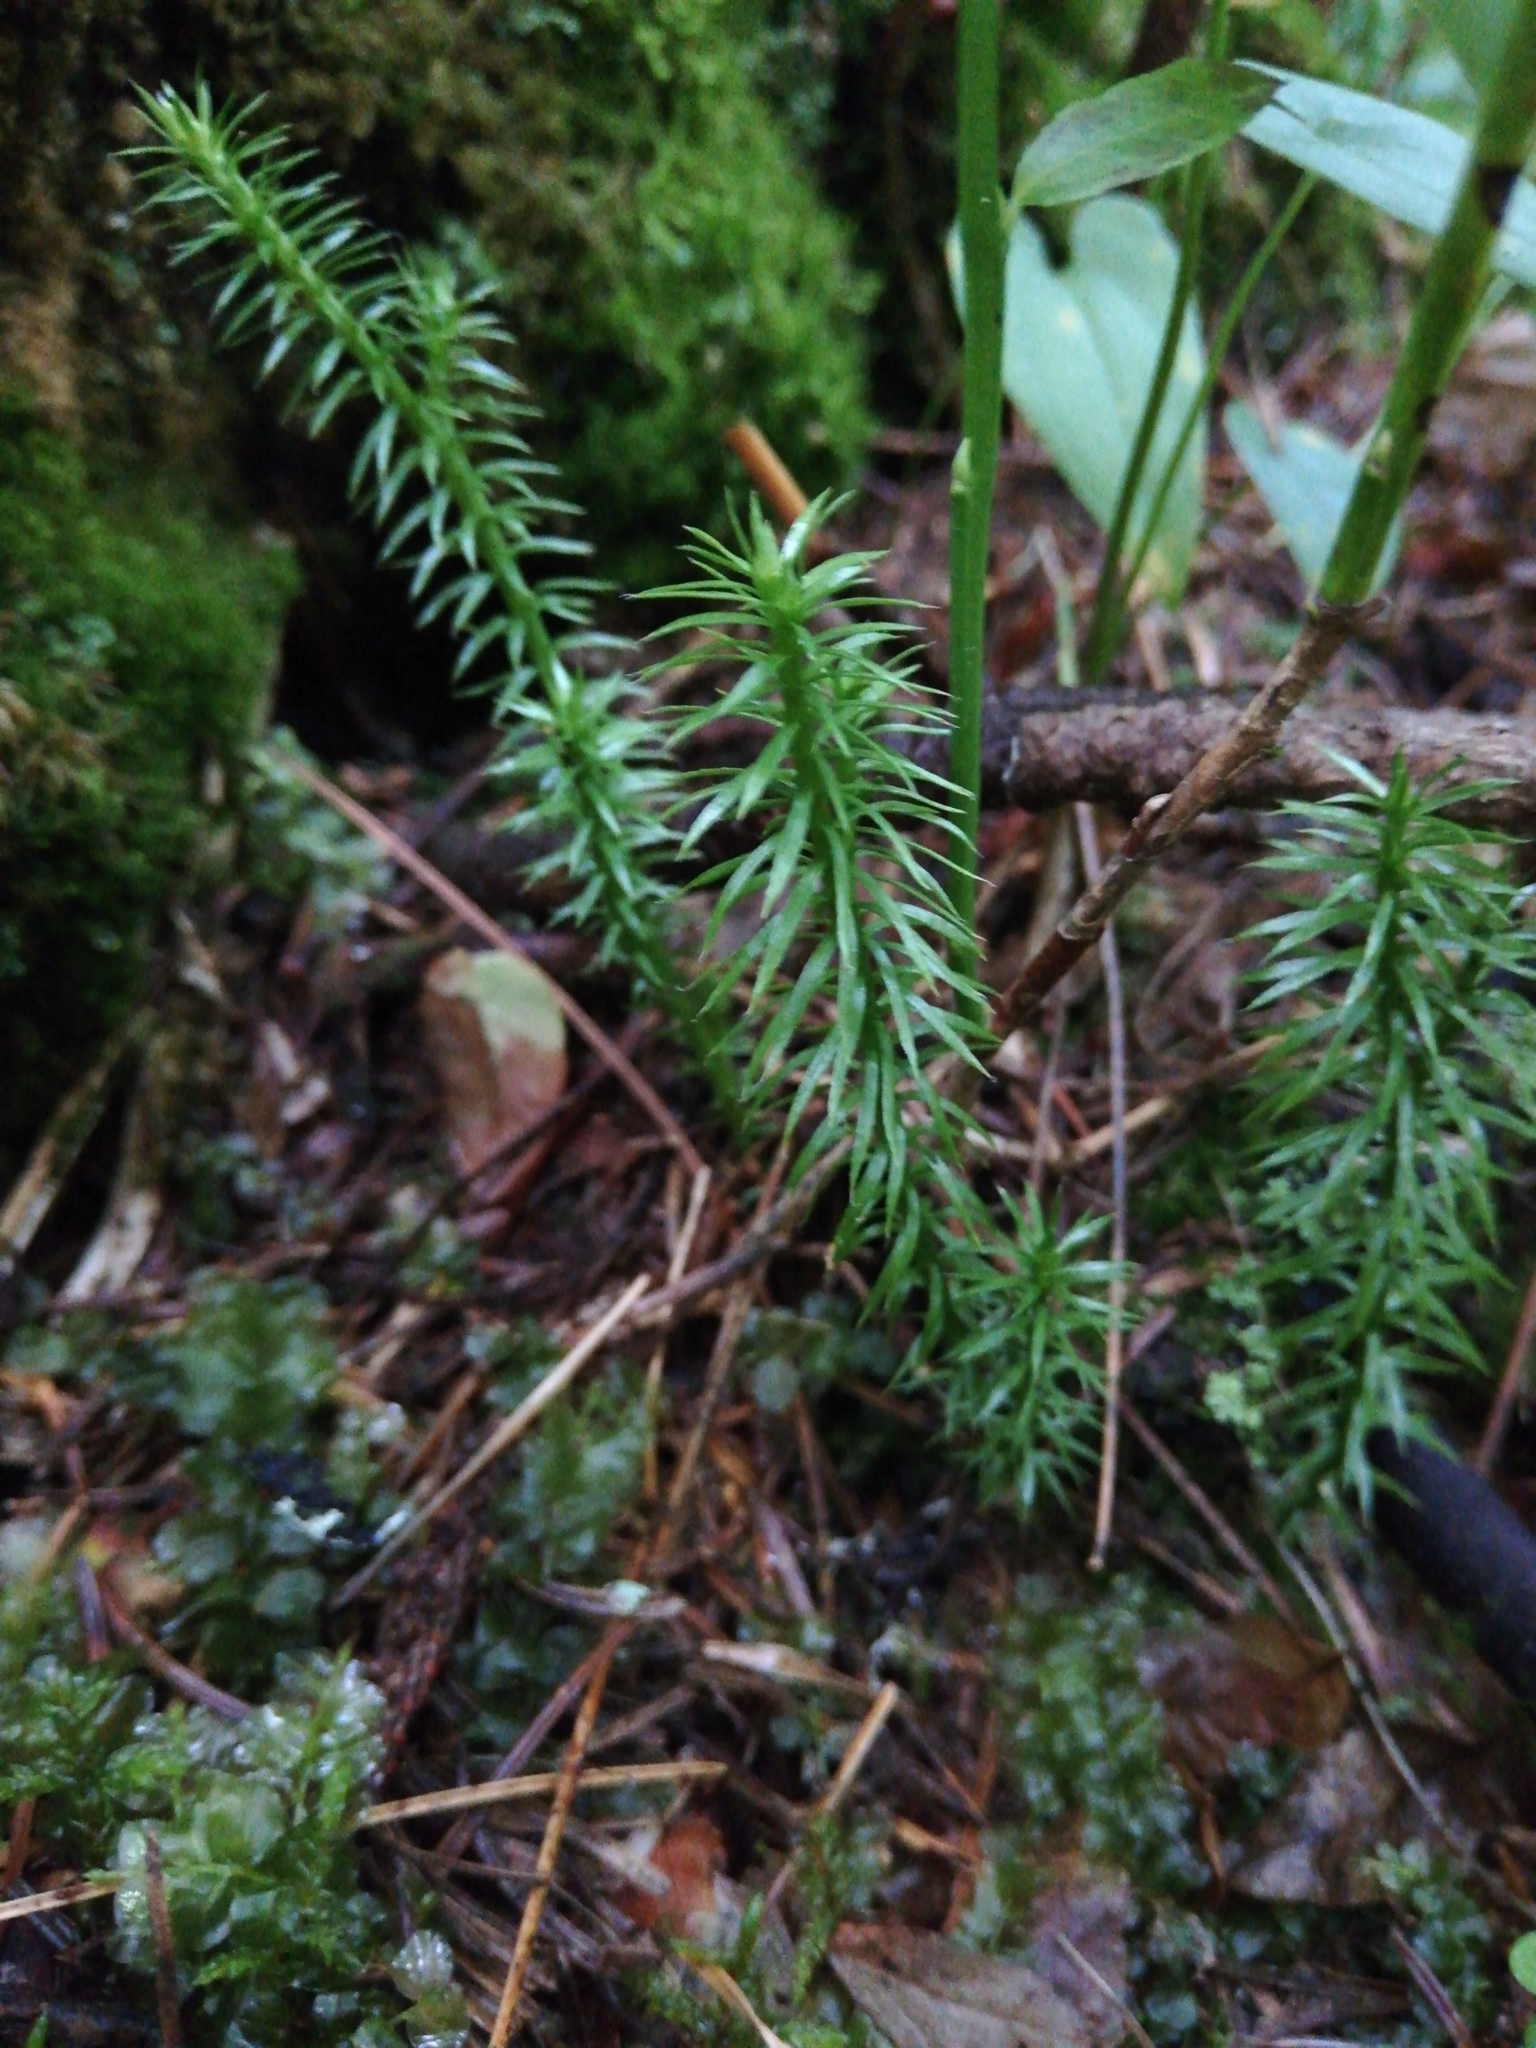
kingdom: Plantae
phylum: Tracheophyta
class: Lycopodiopsida
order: Lycopodiales
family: Lycopodiaceae
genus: Spinulum
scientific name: Spinulum annotinum
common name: Interrupted club-moss
